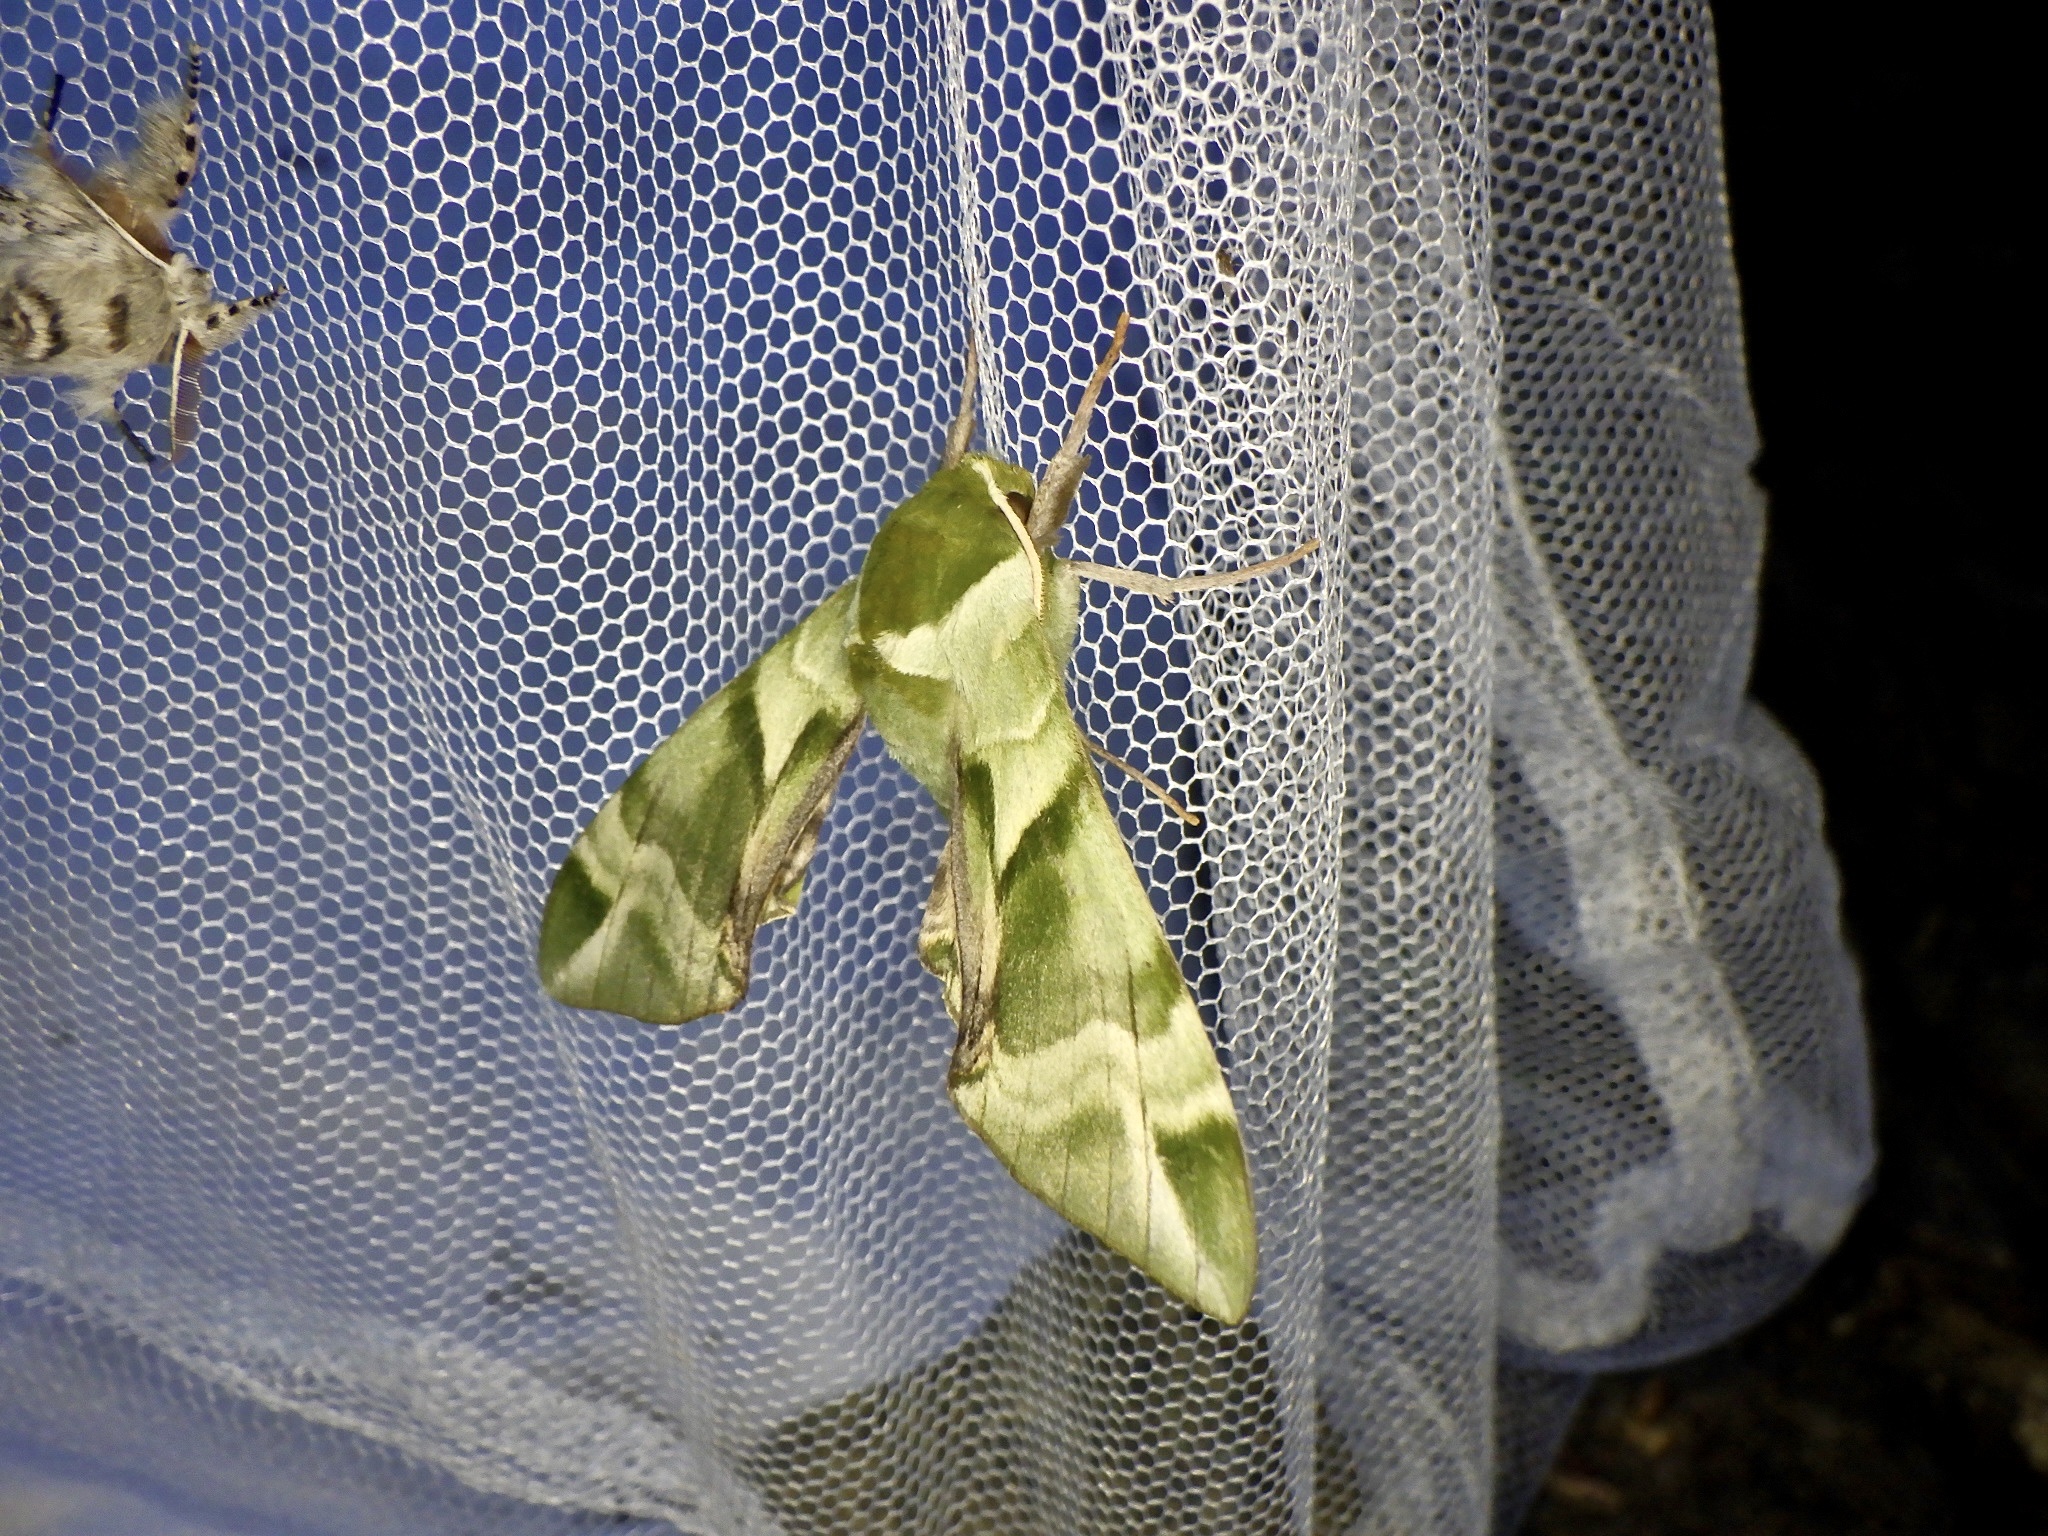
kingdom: Animalia
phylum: Arthropoda
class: Insecta
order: Lepidoptera
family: Sphingidae
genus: Callambulyx
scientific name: Callambulyx tatarinovii
